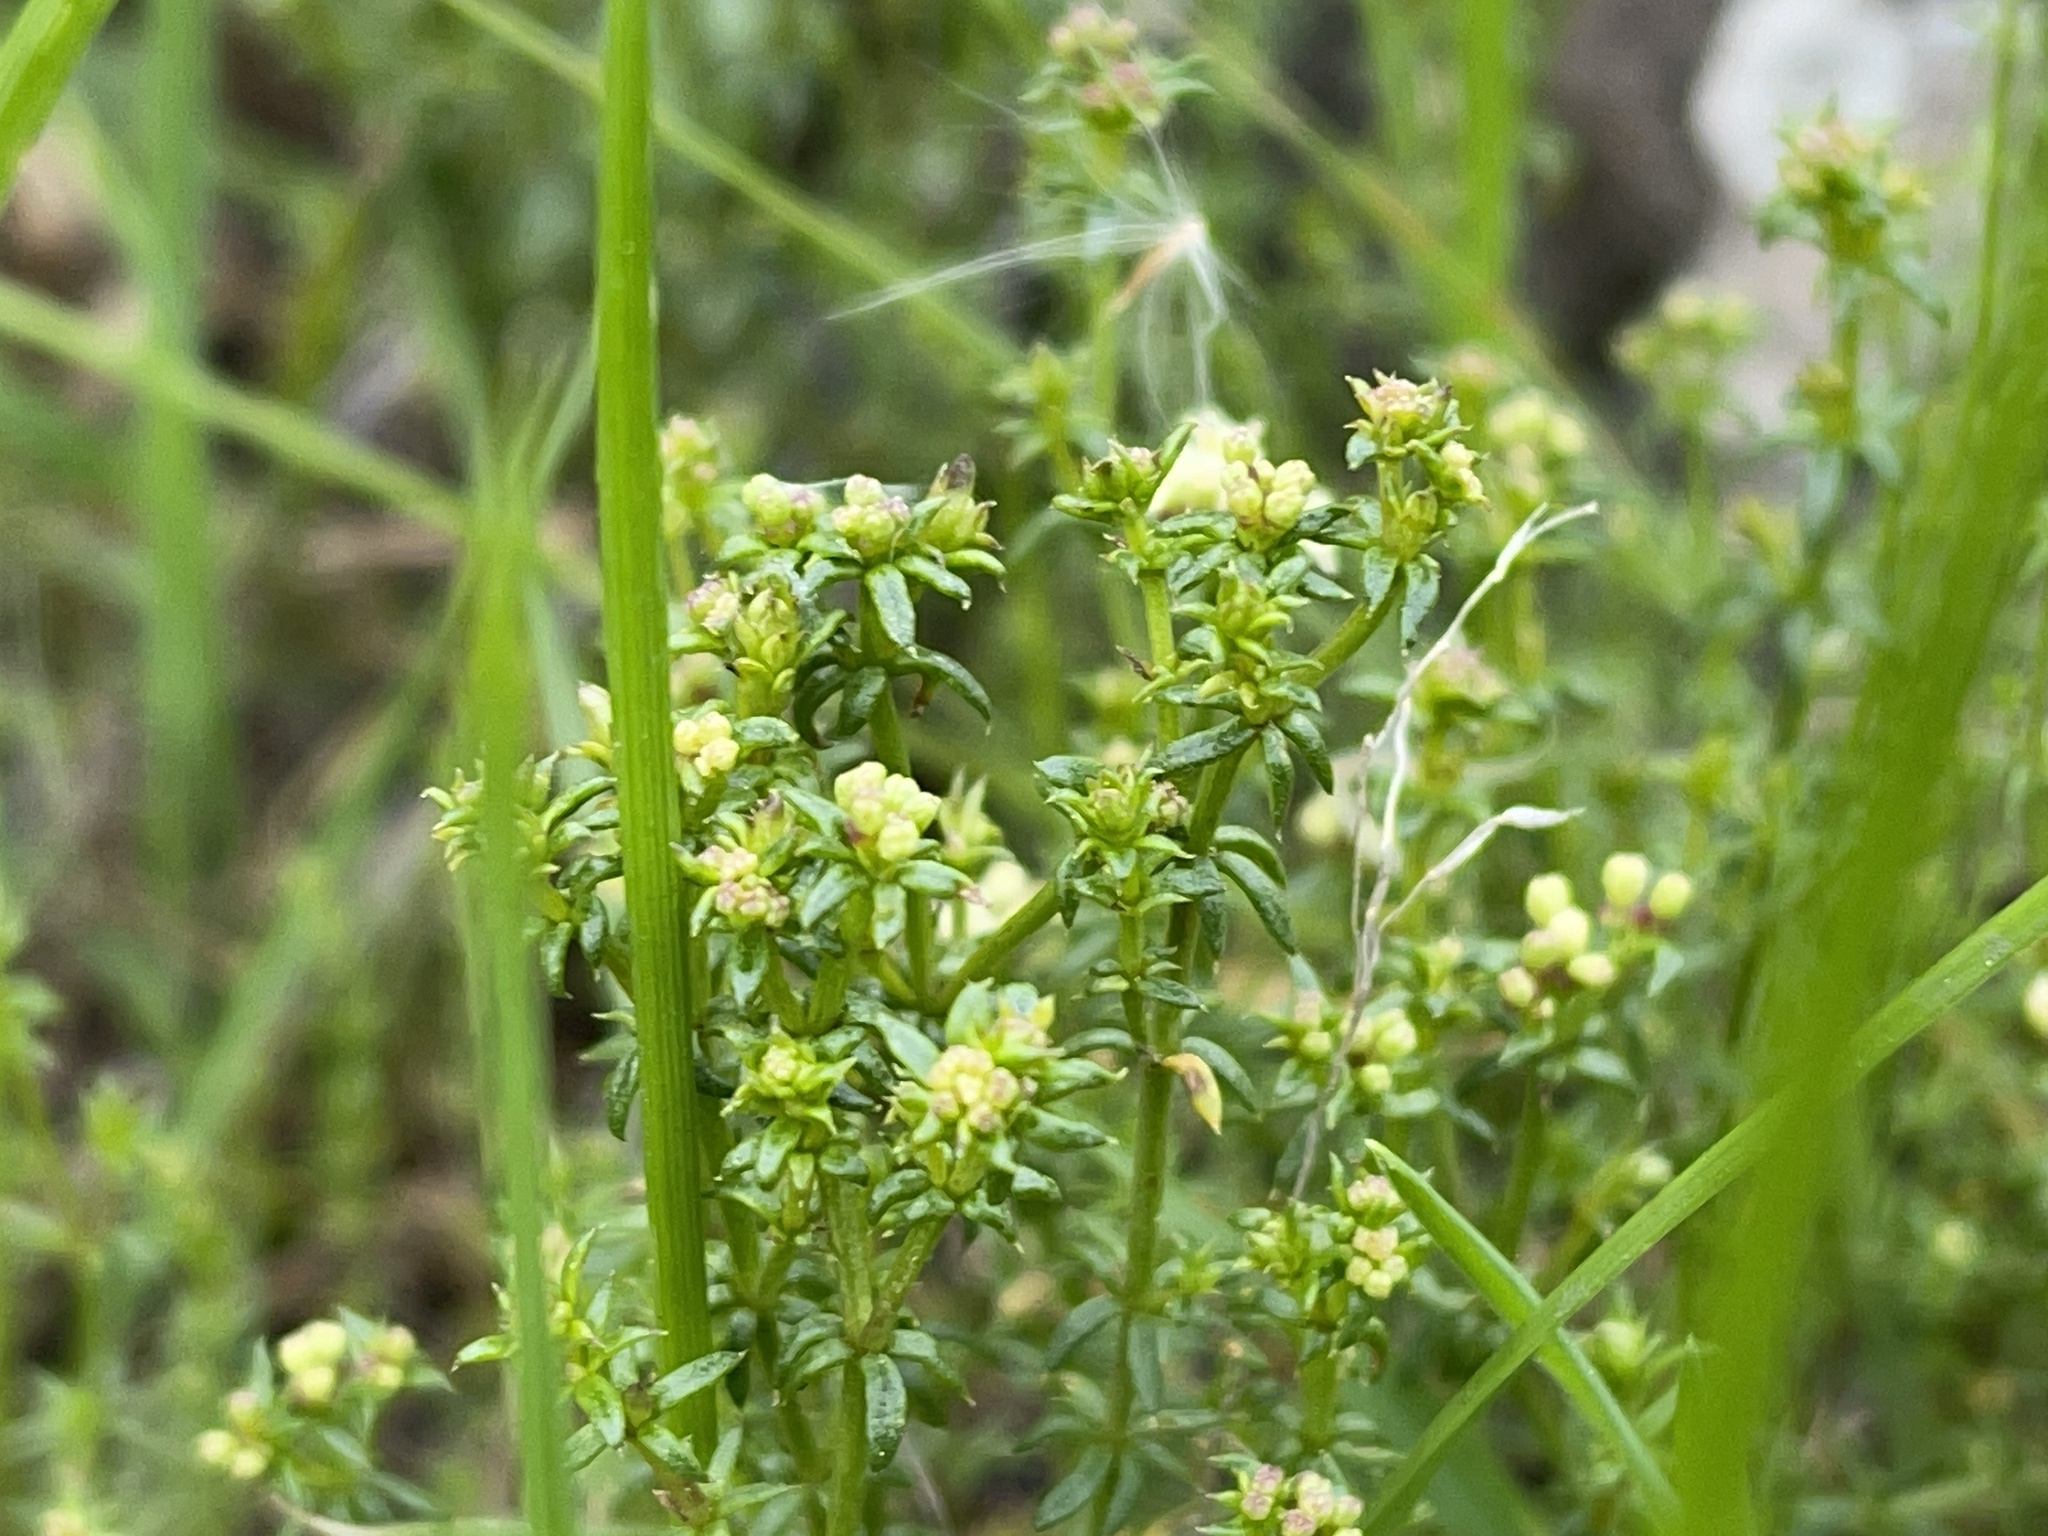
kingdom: Plantae
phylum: Tracheophyta
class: Magnoliopsida
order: Gentianales
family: Rubiaceae
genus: Asperula
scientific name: Asperula conferta
